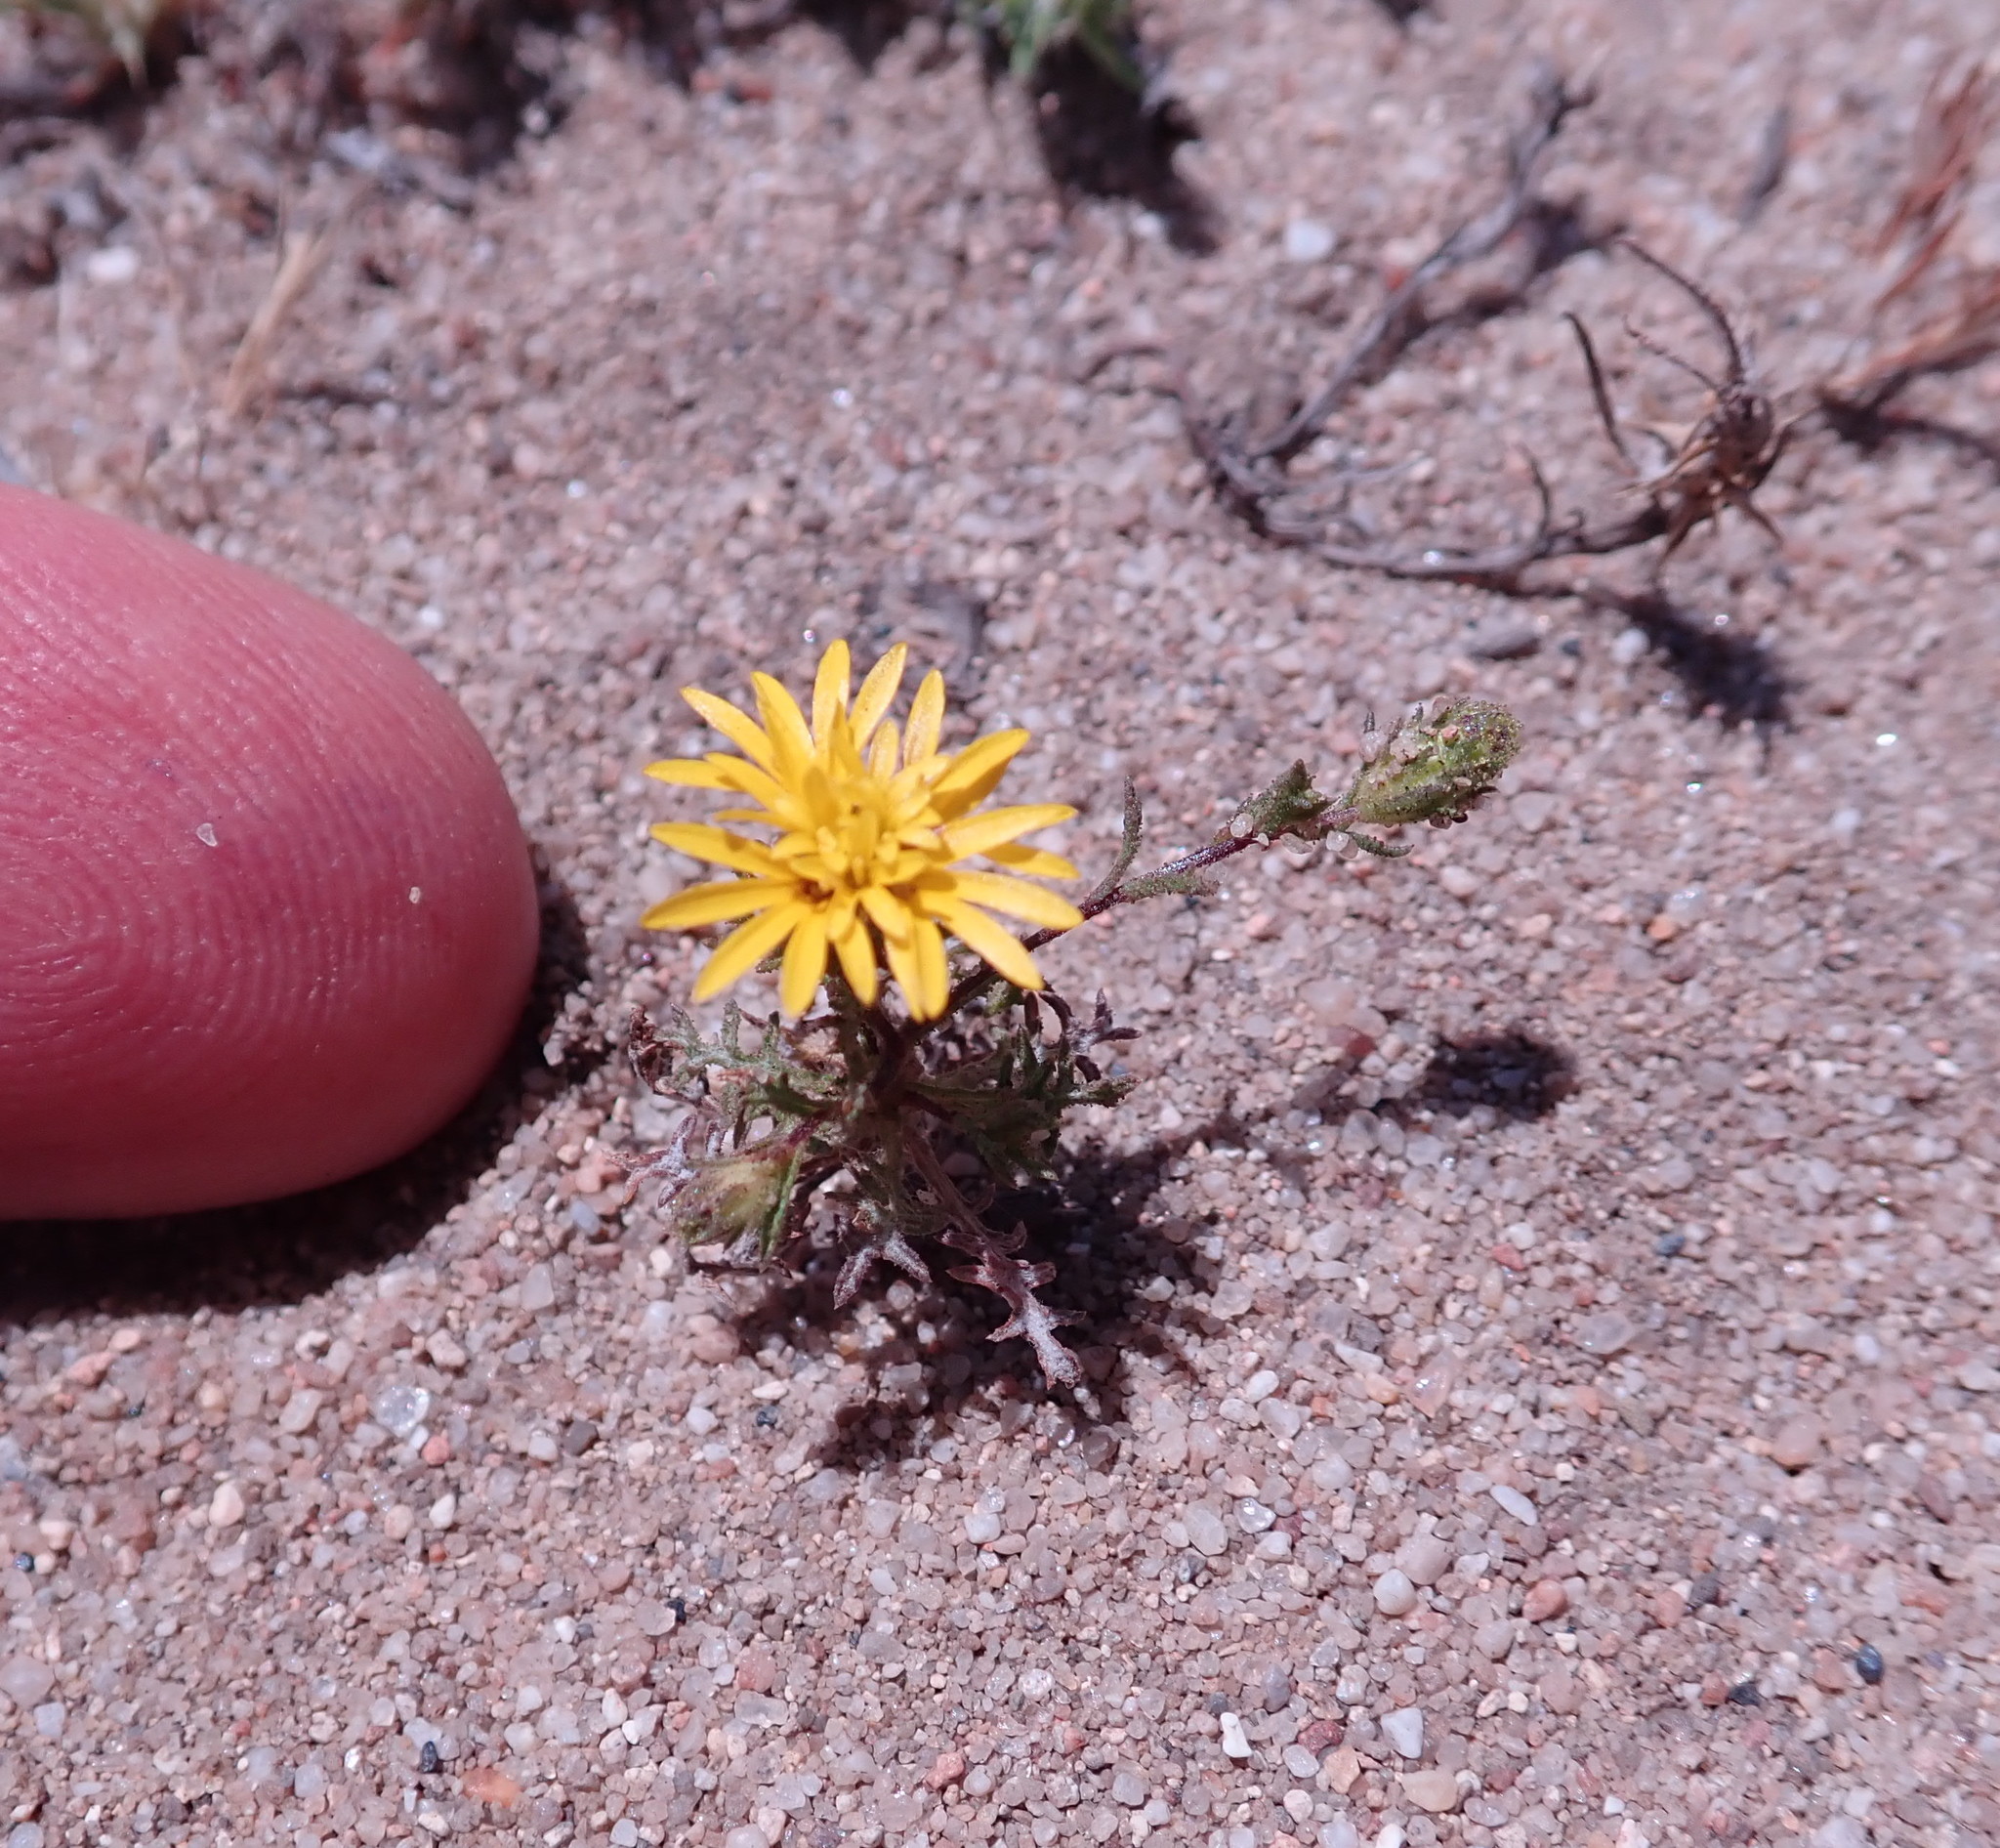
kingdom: Plantae
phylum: Tracheophyta
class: Magnoliopsida
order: Asterales
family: Asteraceae
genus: Lessingia
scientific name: Lessingia pectinata
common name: Valley lessingia
